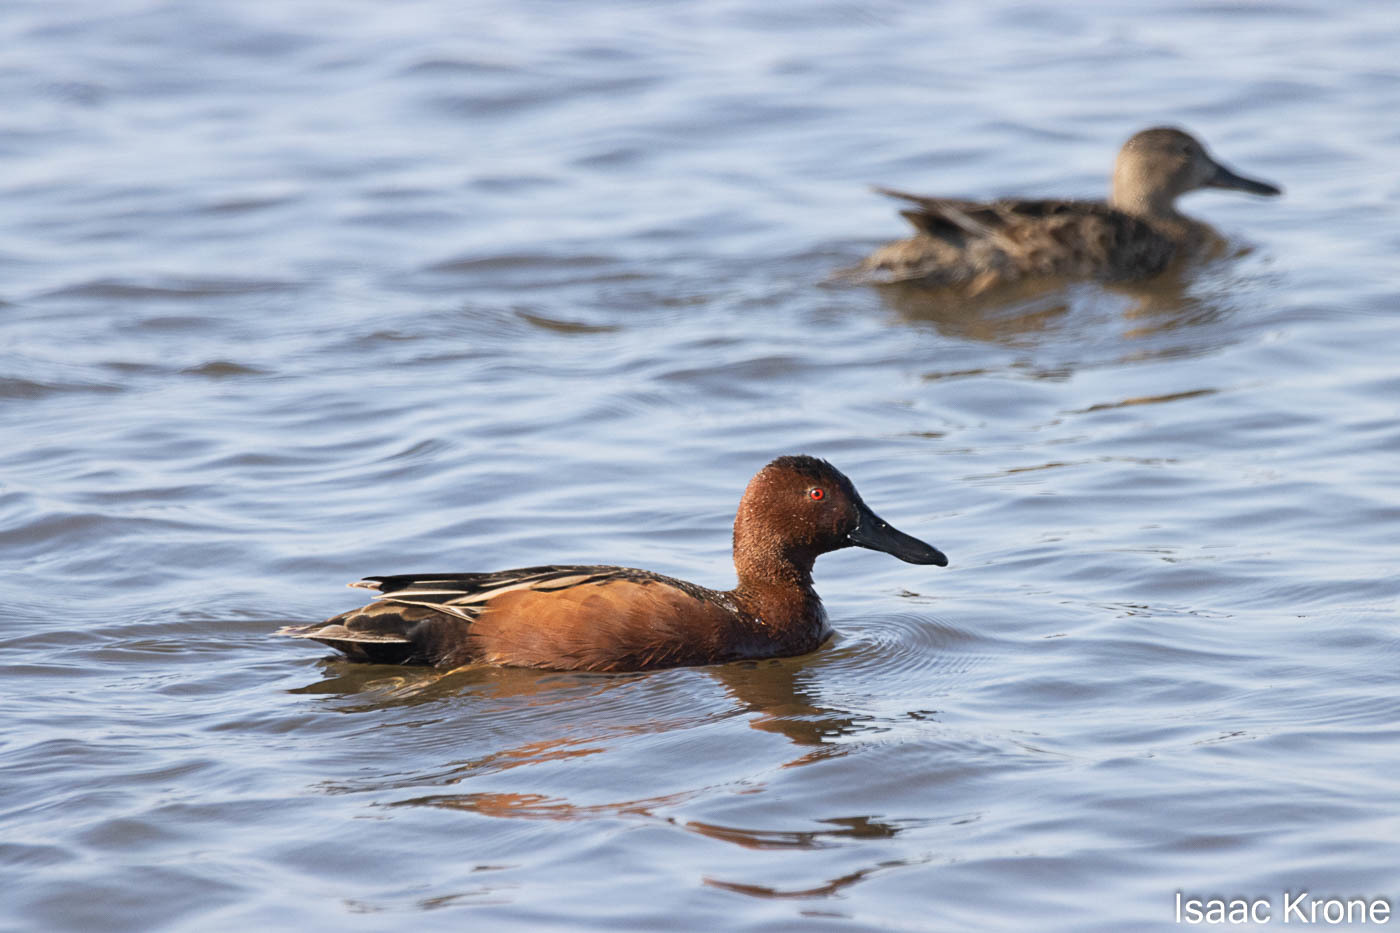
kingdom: Animalia
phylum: Chordata
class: Aves
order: Anseriformes
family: Anatidae
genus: Spatula
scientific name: Spatula cyanoptera
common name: Cinnamon teal
